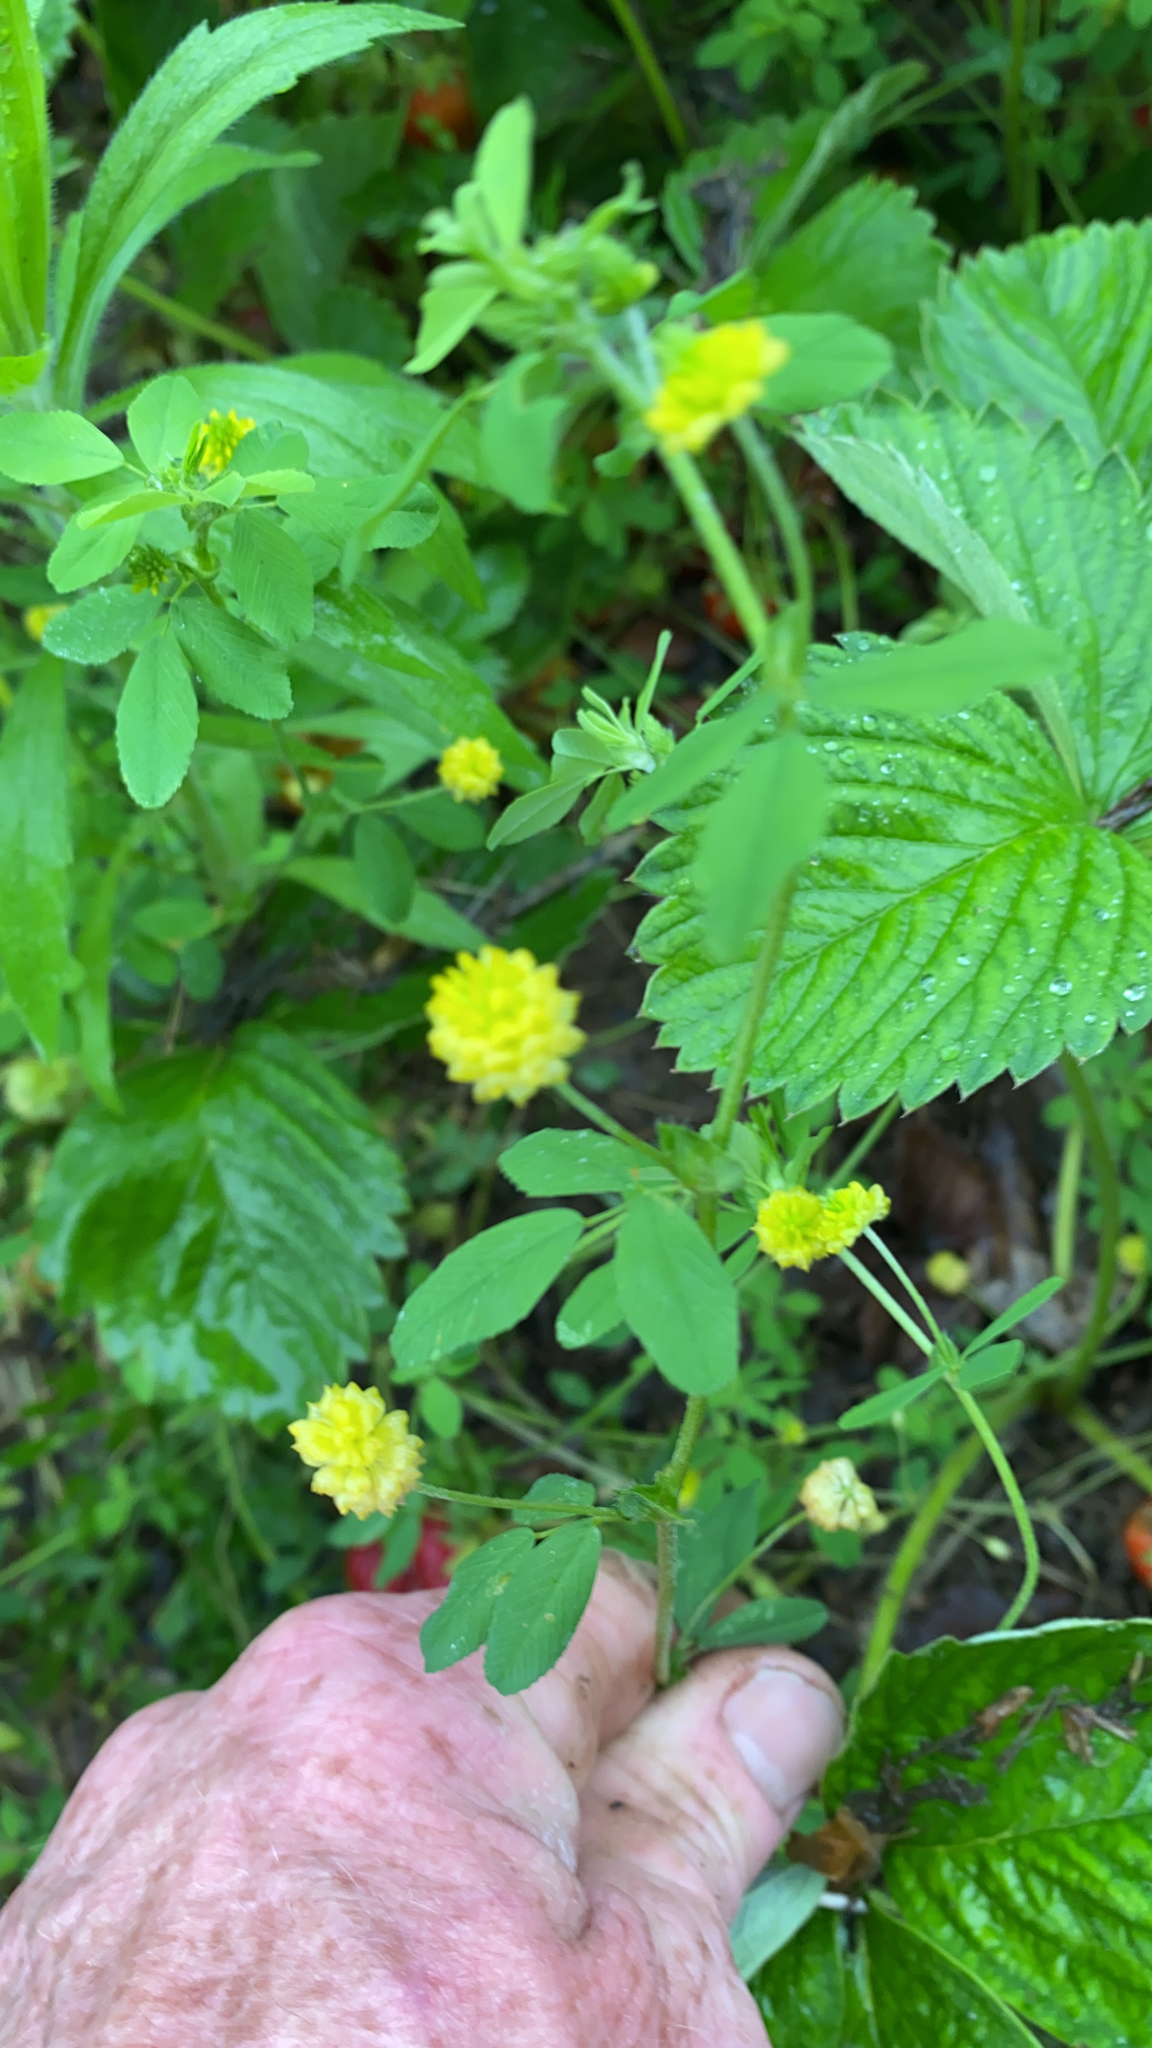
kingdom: Plantae
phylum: Tracheophyta
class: Magnoliopsida
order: Fabales
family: Fabaceae
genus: Trifolium
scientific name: Trifolium campestre
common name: Field clover
